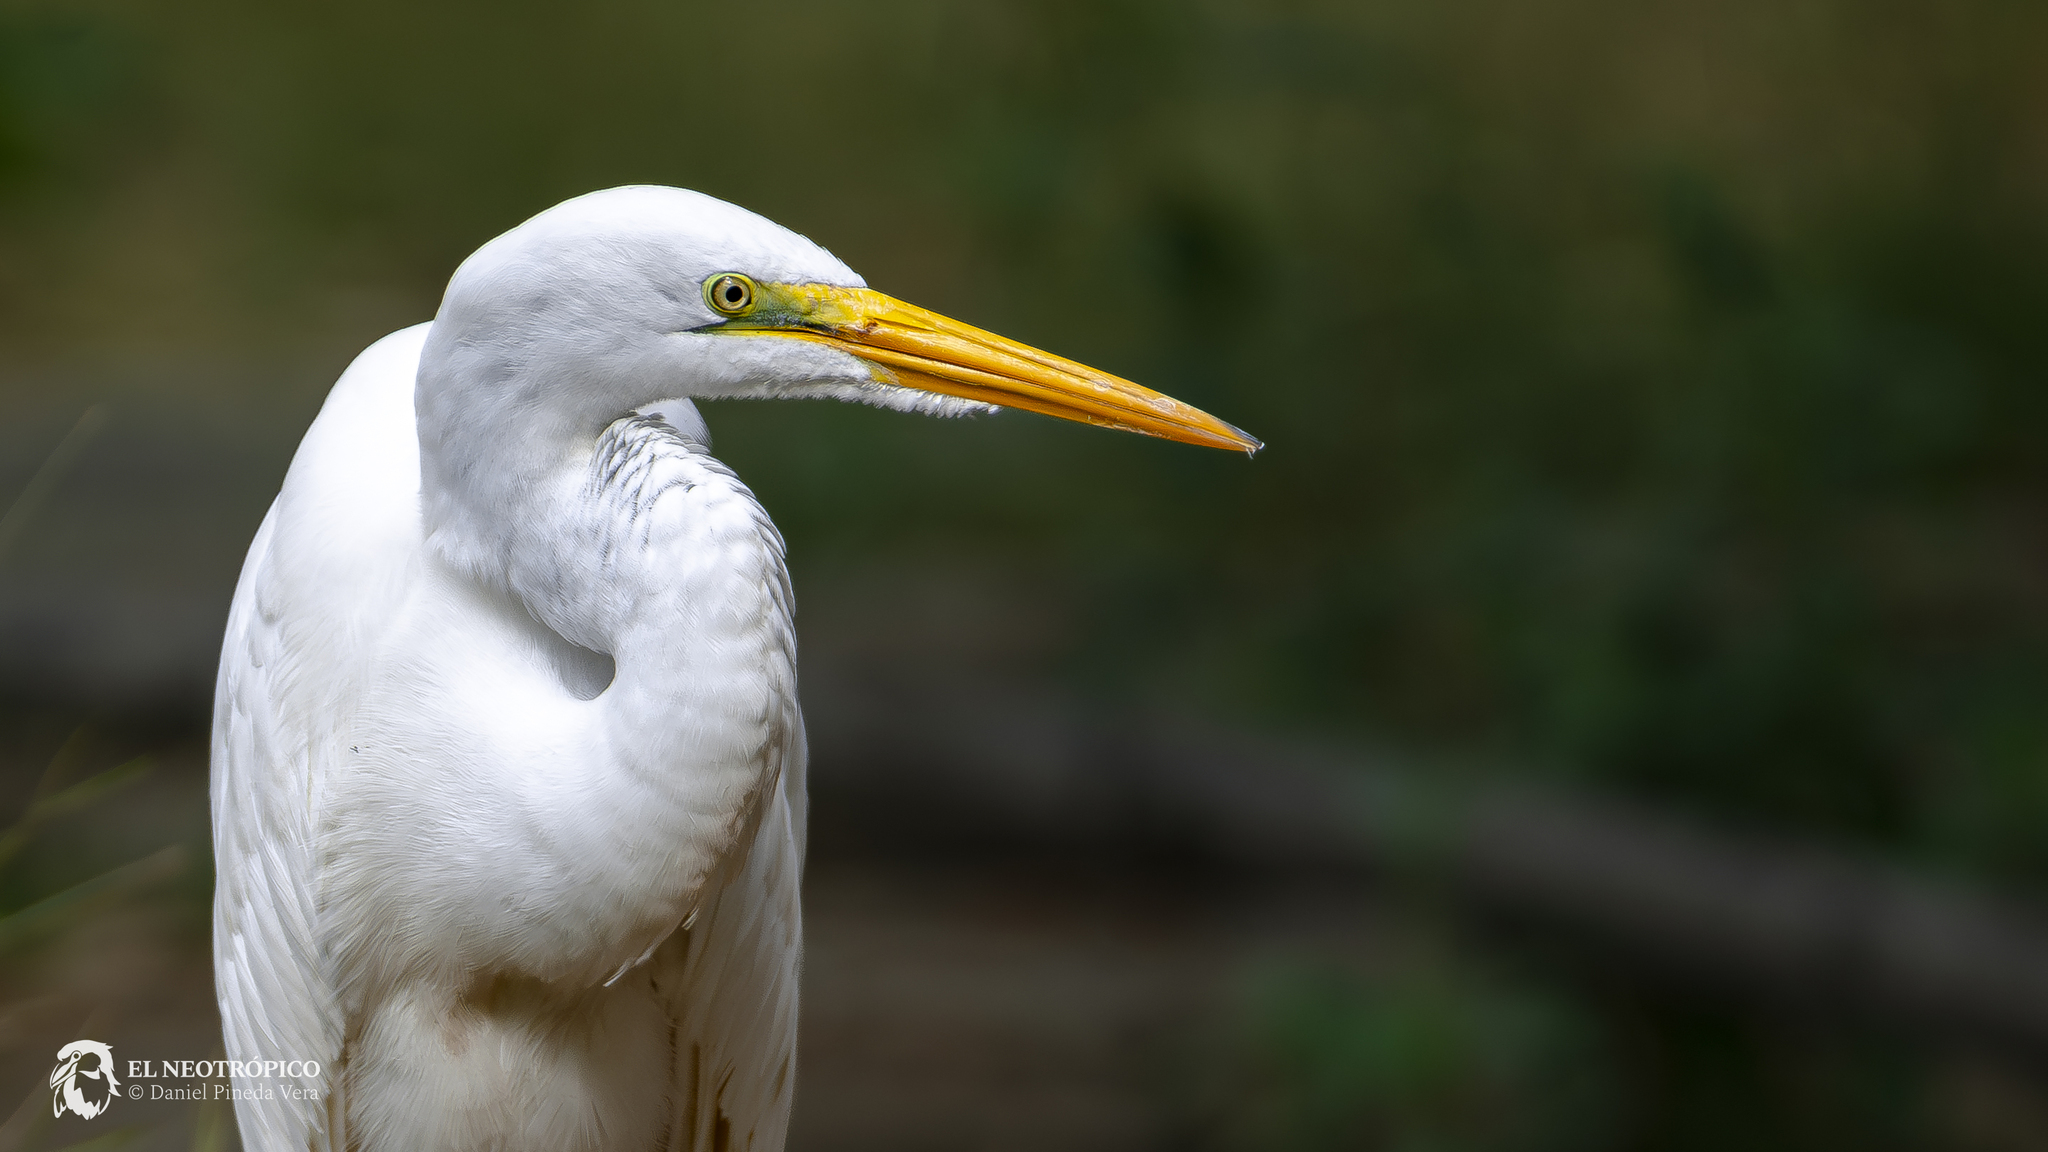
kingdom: Animalia
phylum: Chordata
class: Aves
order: Pelecaniformes
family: Ardeidae
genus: Ardea
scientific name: Ardea alba
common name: Great egret
